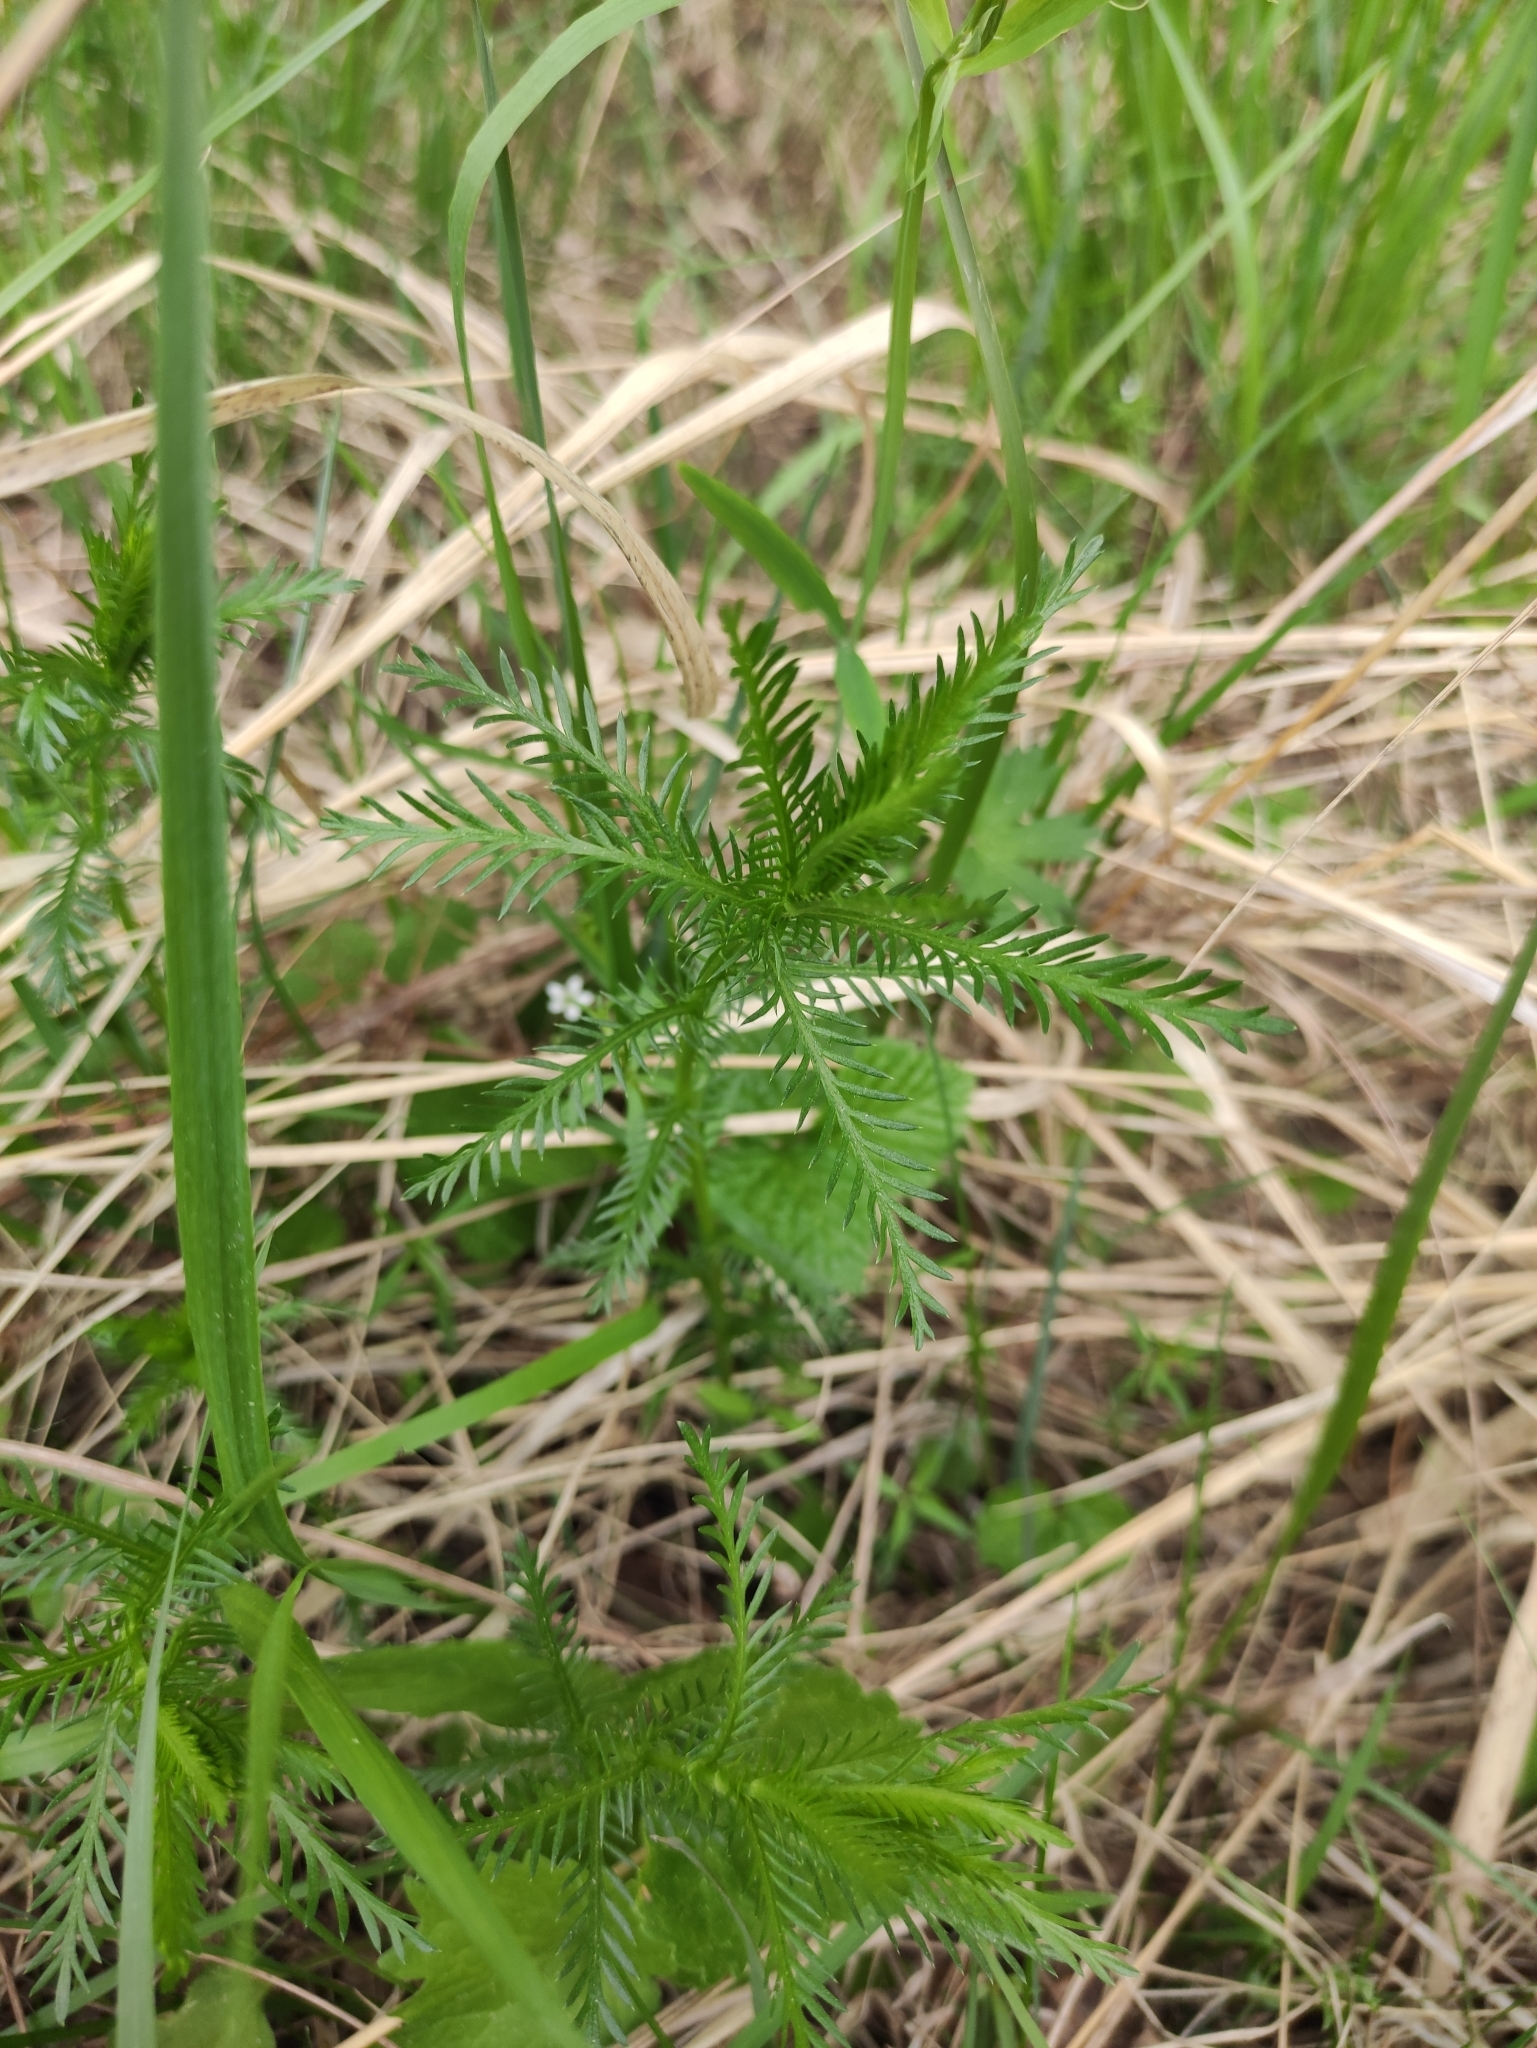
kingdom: Plantae
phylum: Tracheophyta
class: Magnoliopsida
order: Asterales
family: Asteraceae
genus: Achillea
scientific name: Achillea impatiens
